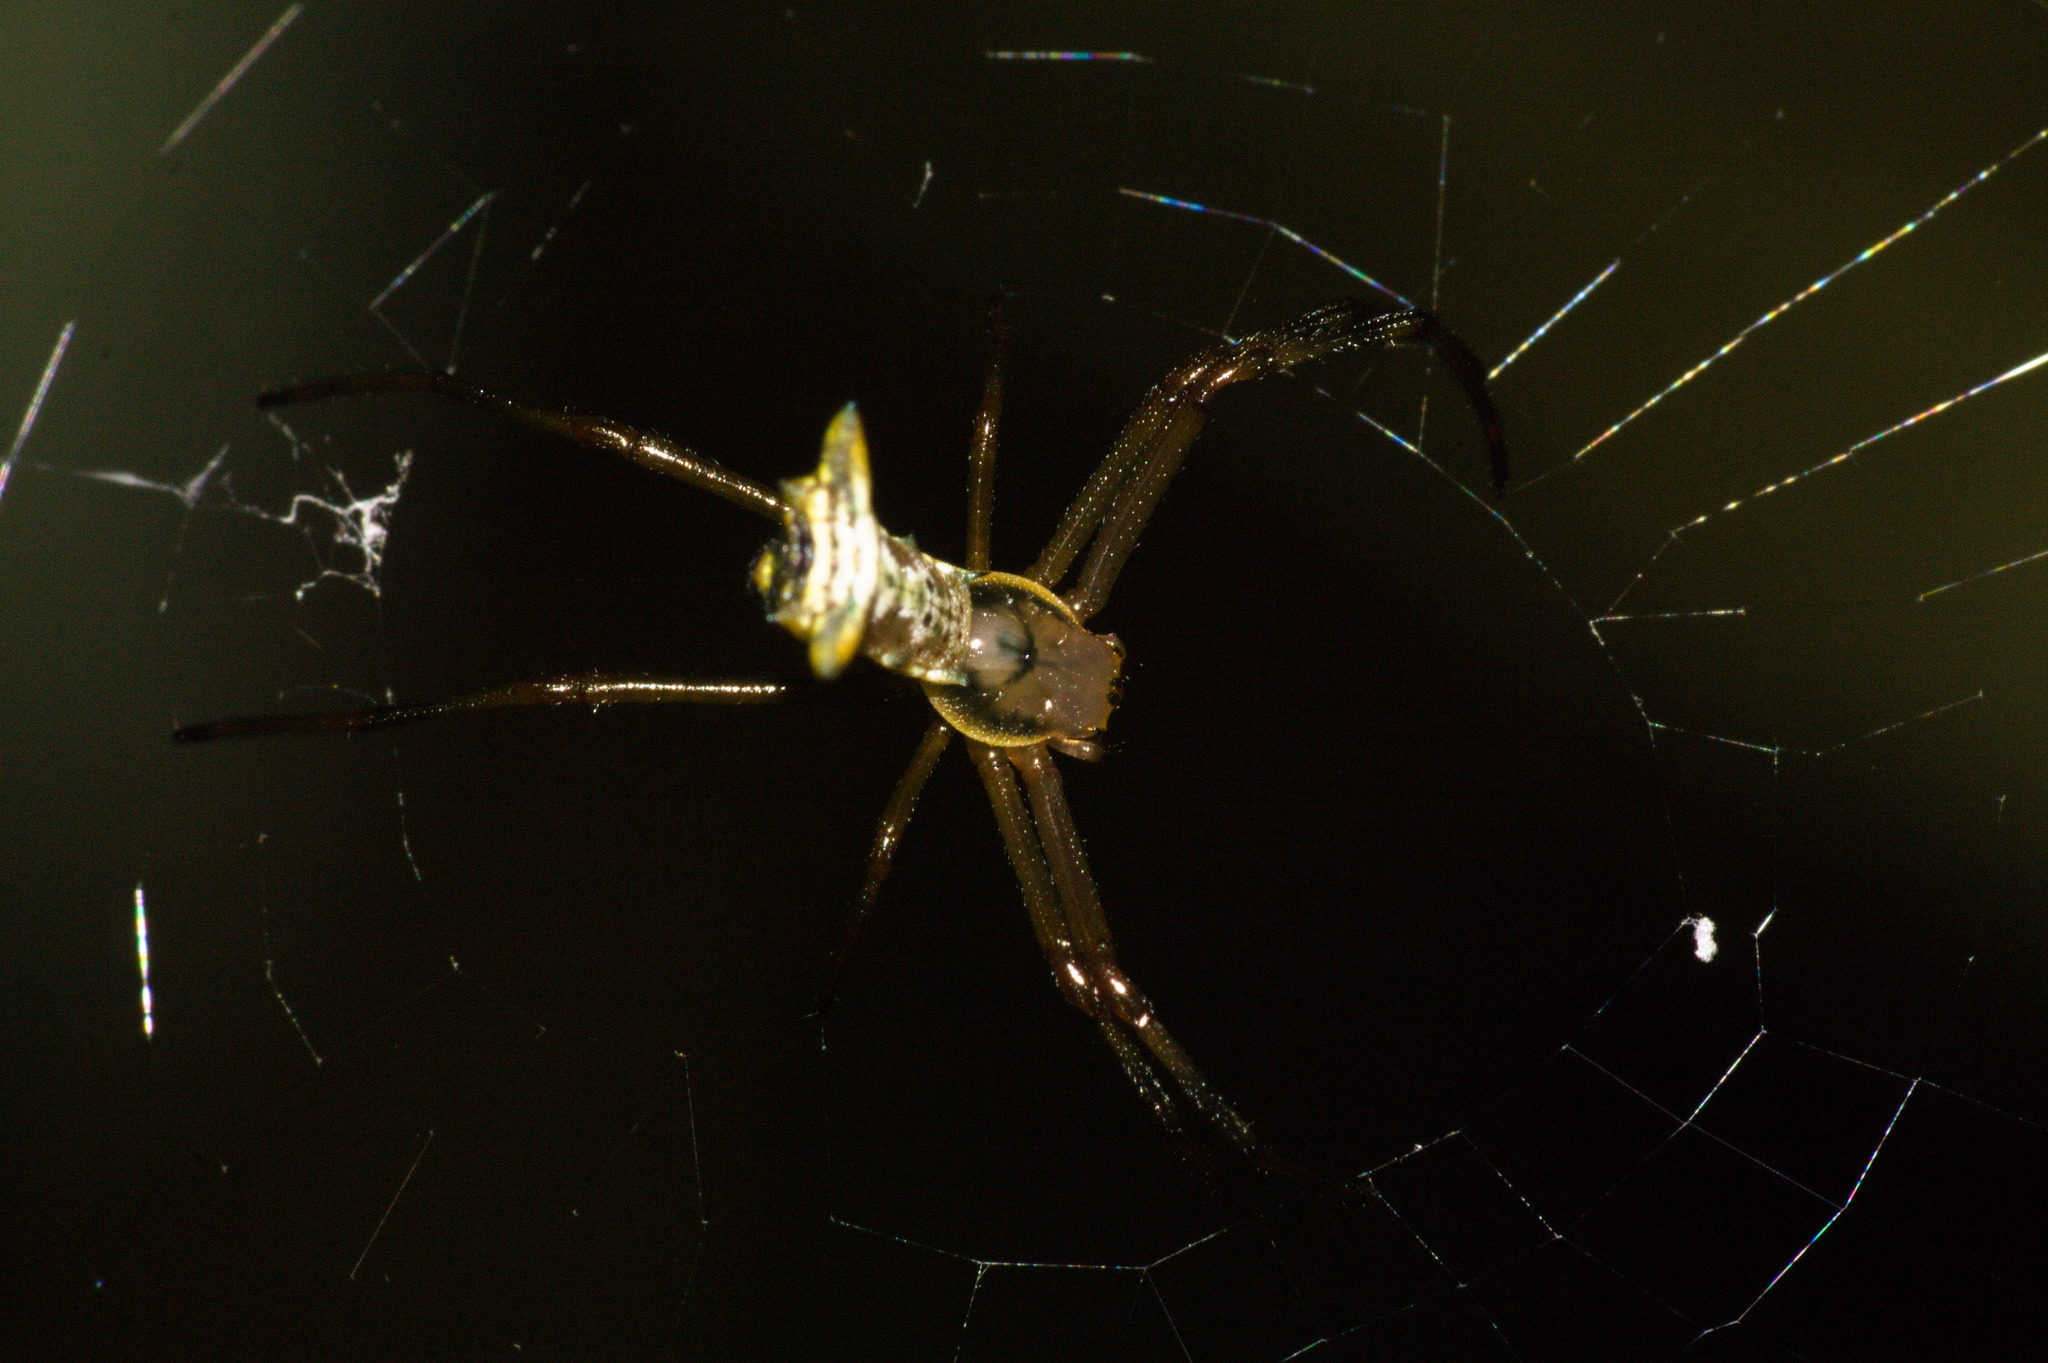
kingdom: Animalia
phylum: Arthropoda
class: Arachnida
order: Araneae
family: Araneidae
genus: Micrathena
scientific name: Micrathena crassispina
